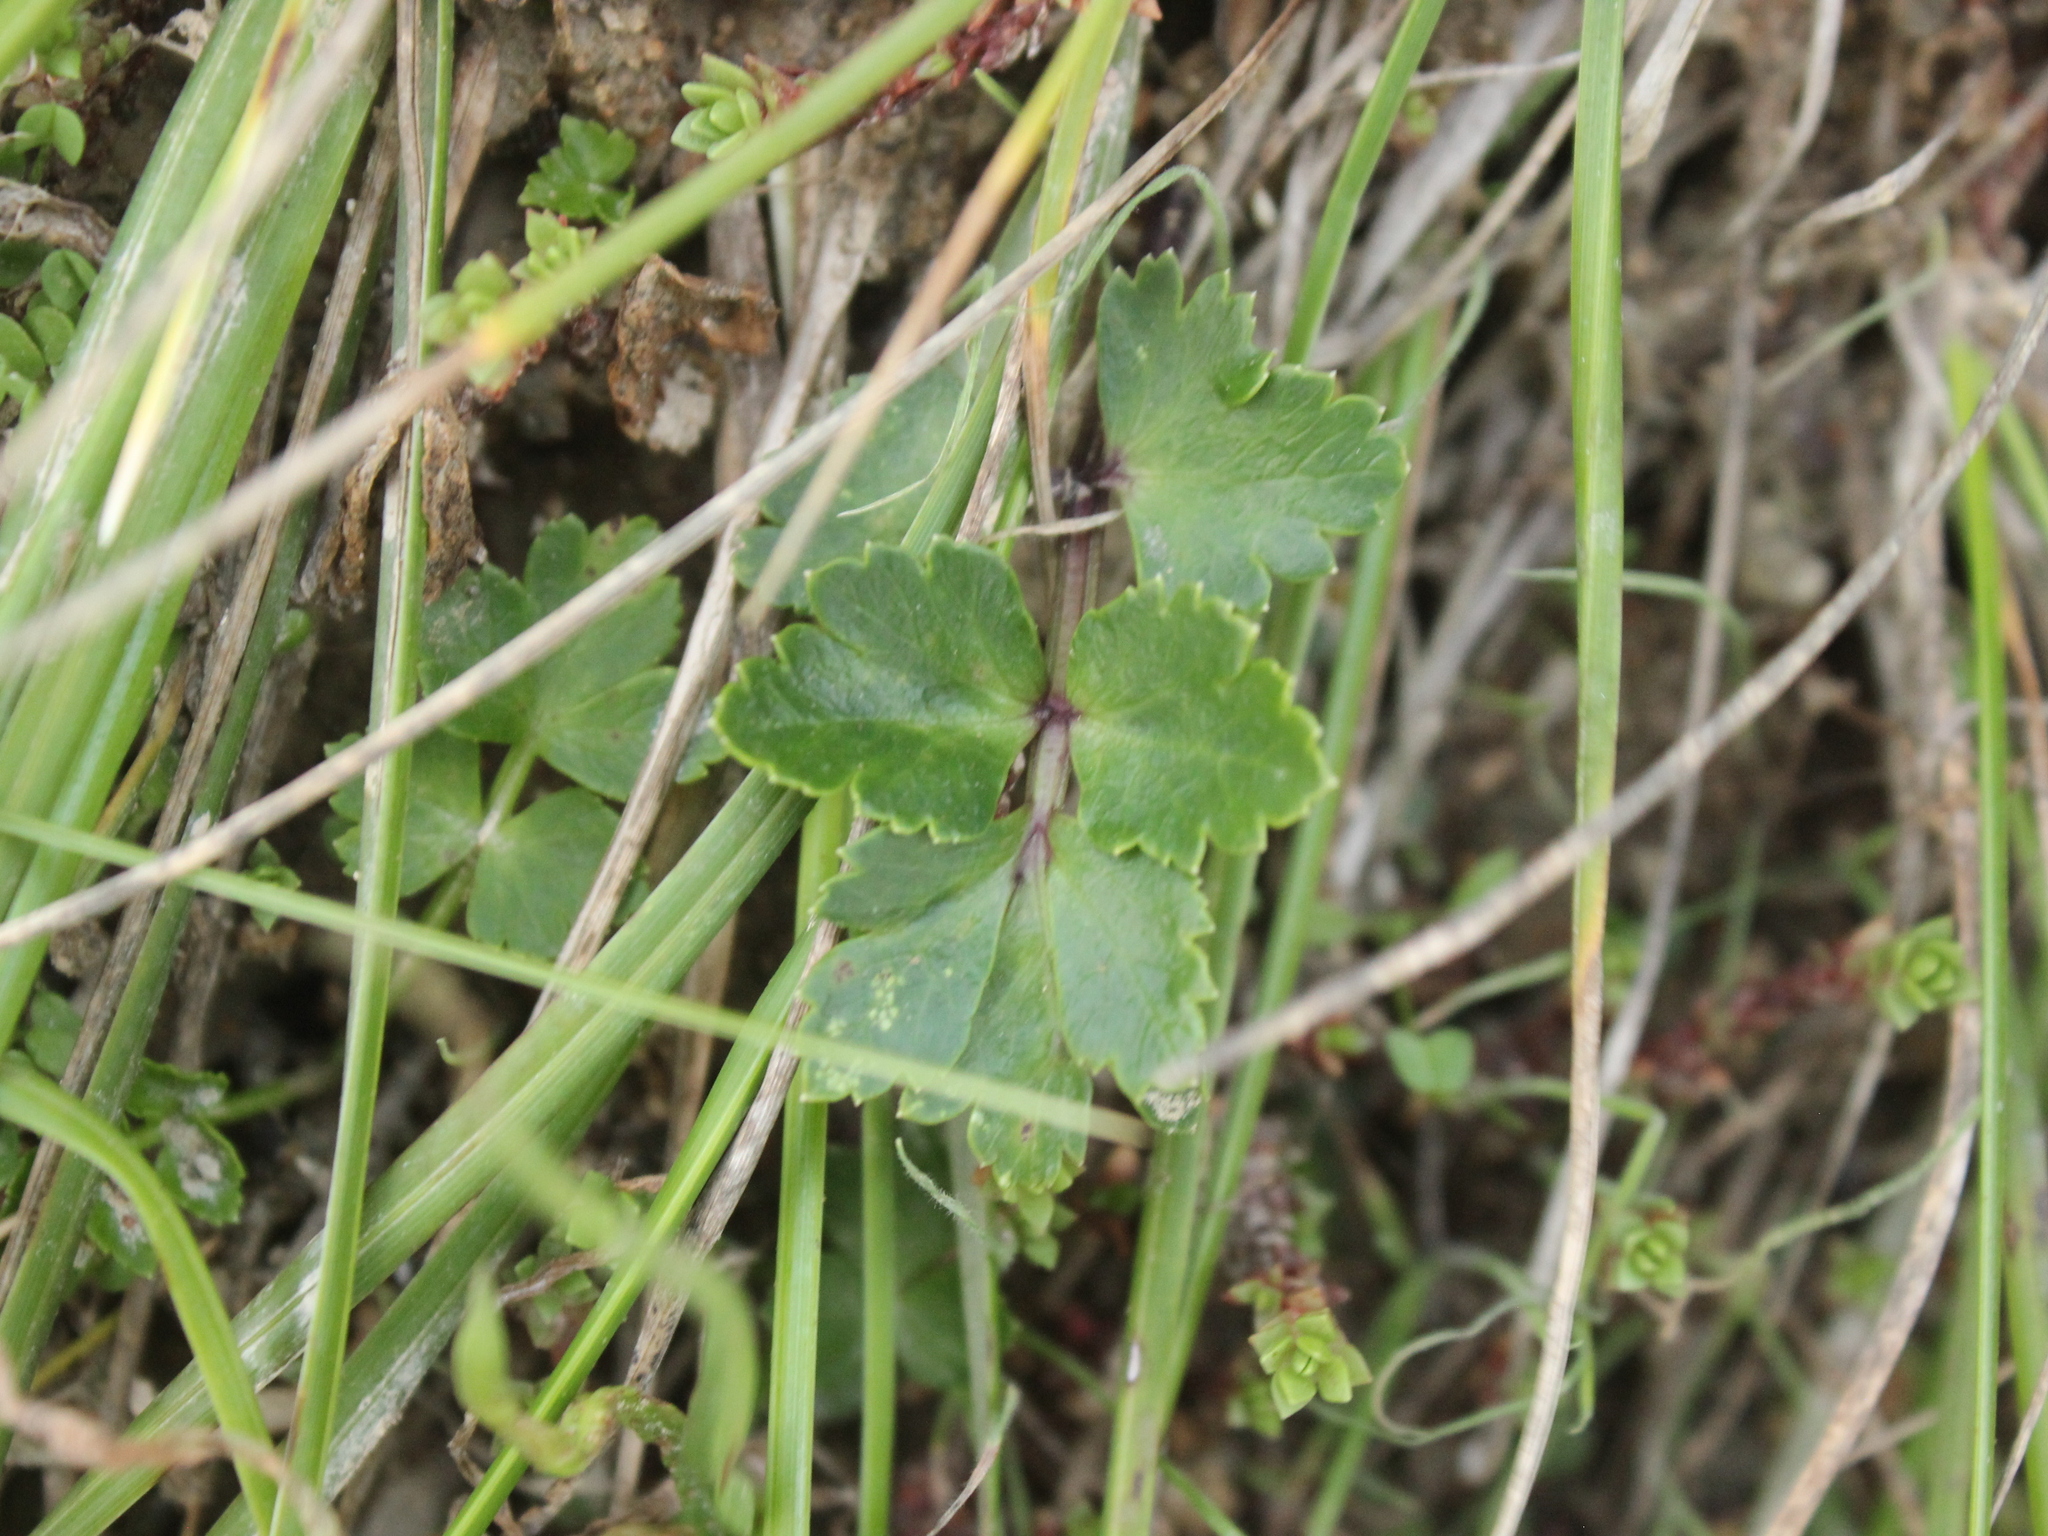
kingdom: Plantae
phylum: Tracheophyta
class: Magnoliopsida
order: Apiales
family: Apiaceae
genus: Apium
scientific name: Apium prostratum
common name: Prostrate marshwort
